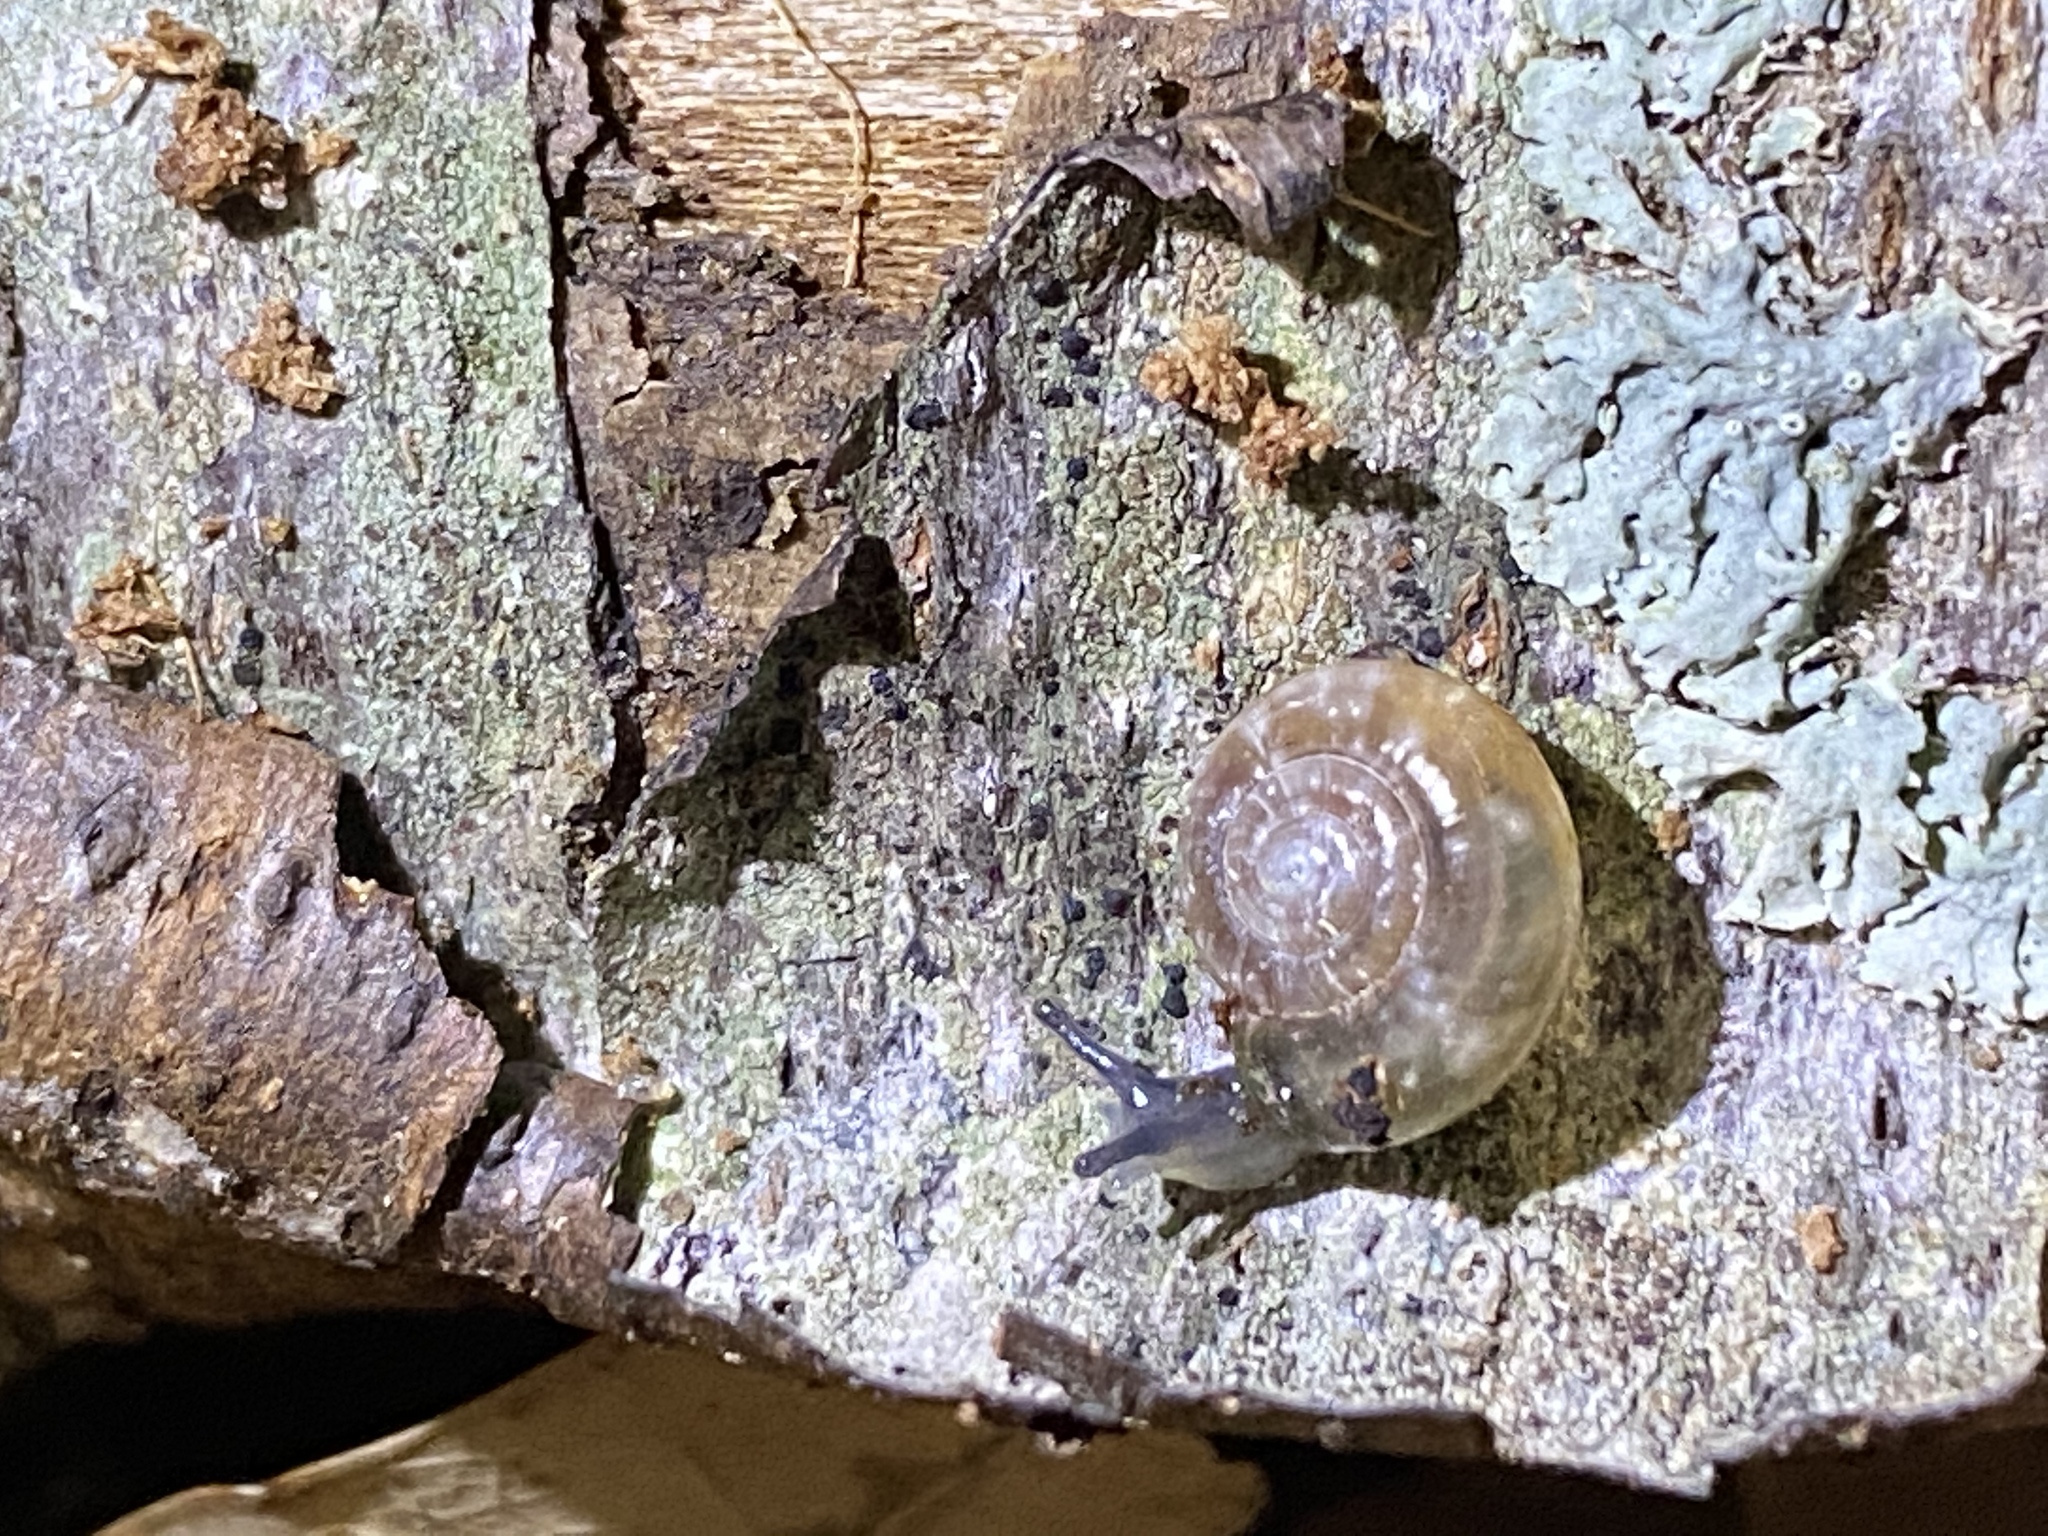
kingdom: Animalia
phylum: Mollusca
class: Gastropoda
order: Stylommatophora
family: Oxychilidae
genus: Oxychilus
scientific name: Oxychilus draparnaudi
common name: Draparnaud's glass snail
